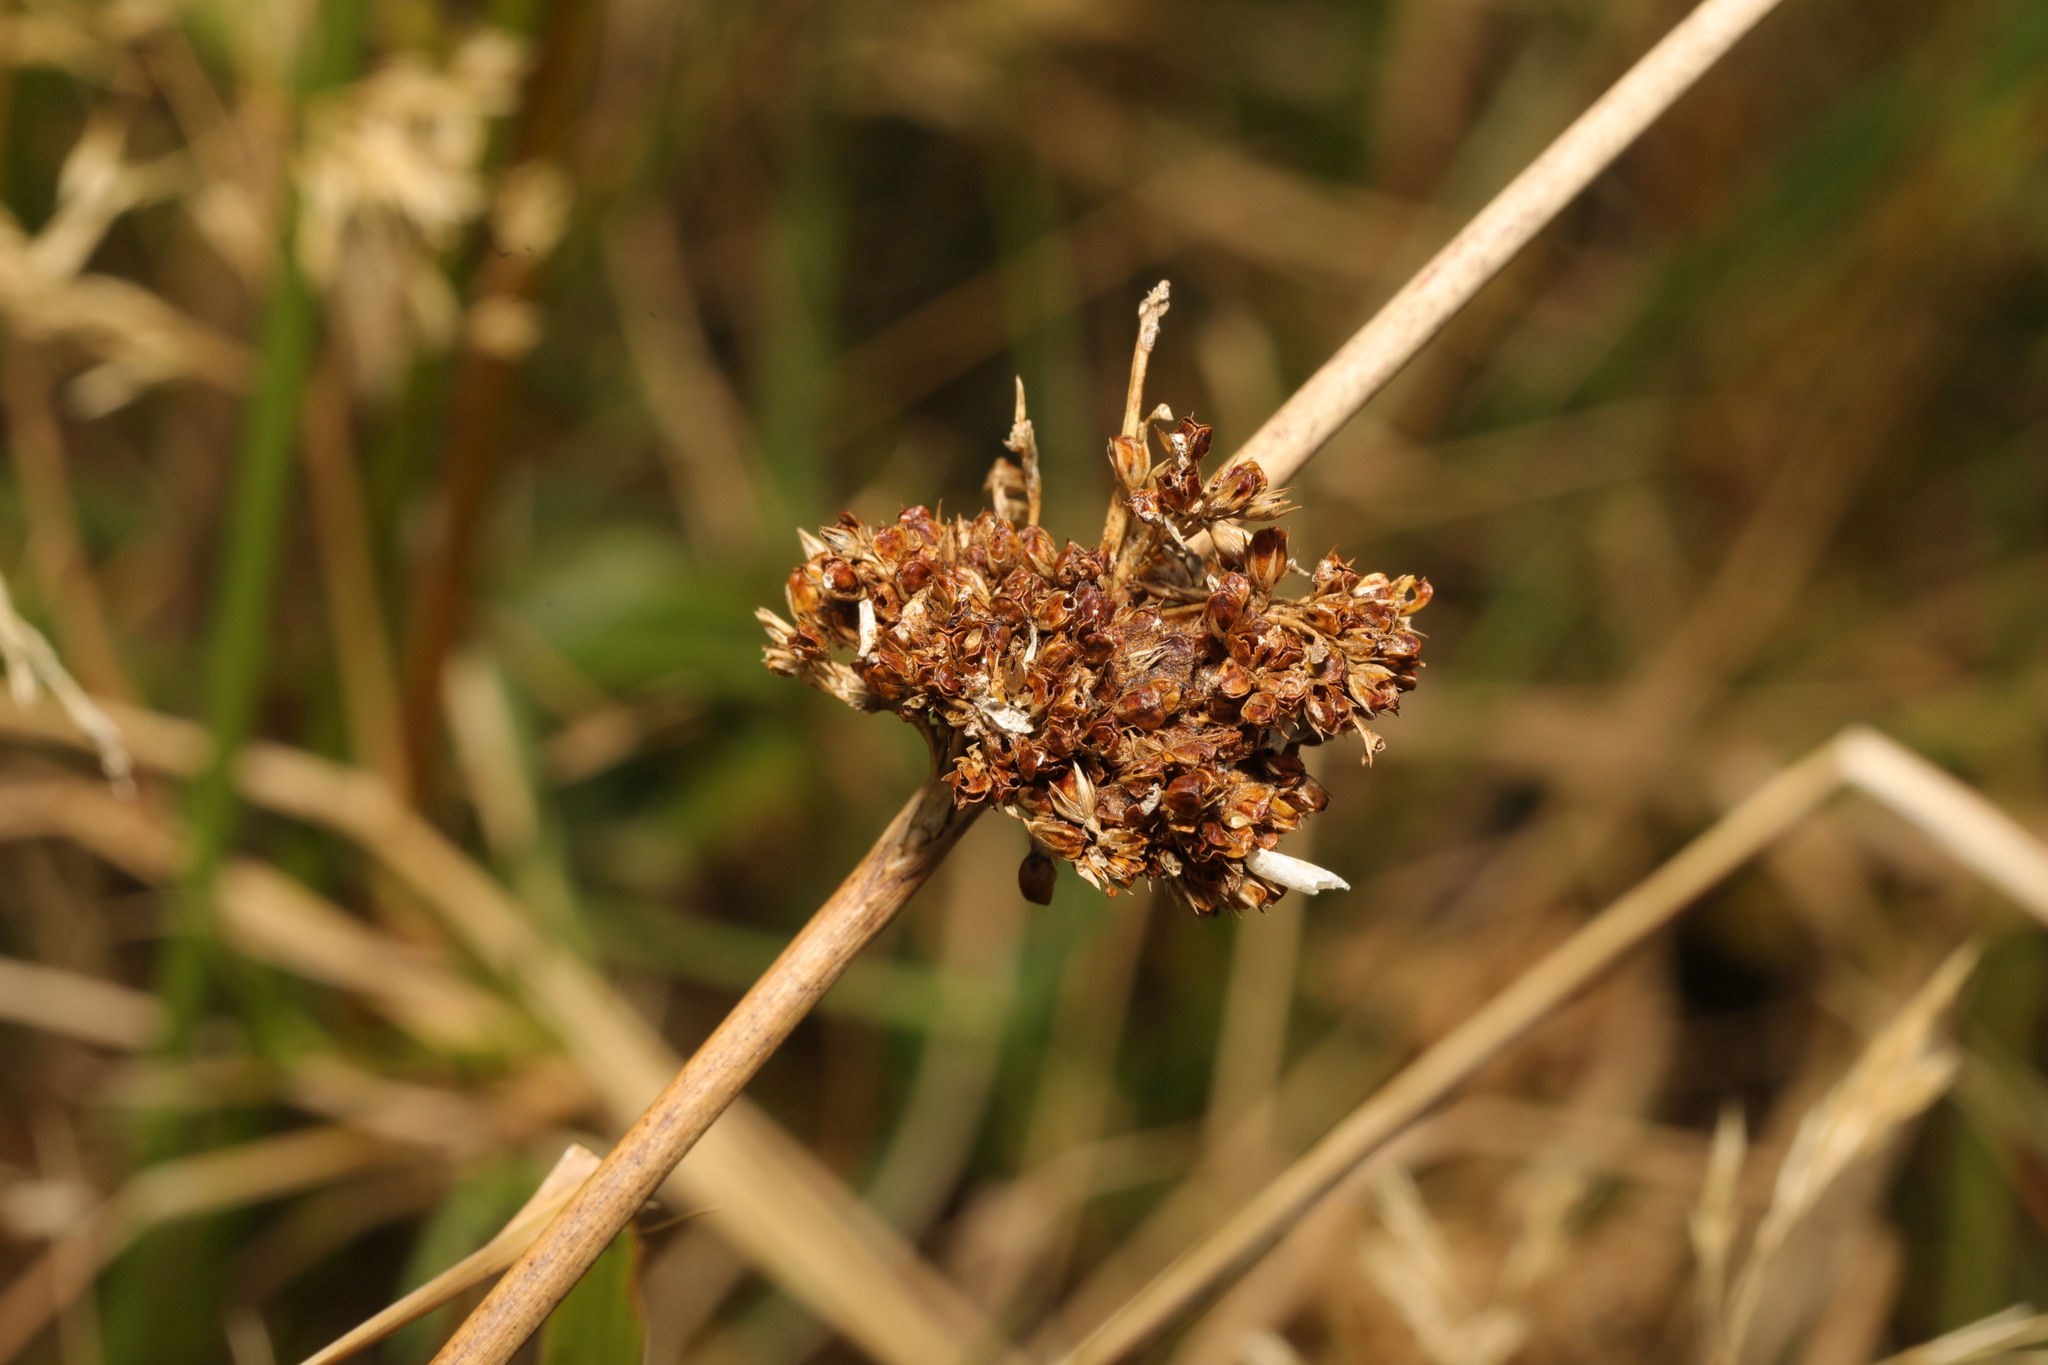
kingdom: Plantae
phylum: Tracheophyta
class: Liliopsida
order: Poales
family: Juncaceae
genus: Juncus
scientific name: Juncus effusus
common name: Soft rush
